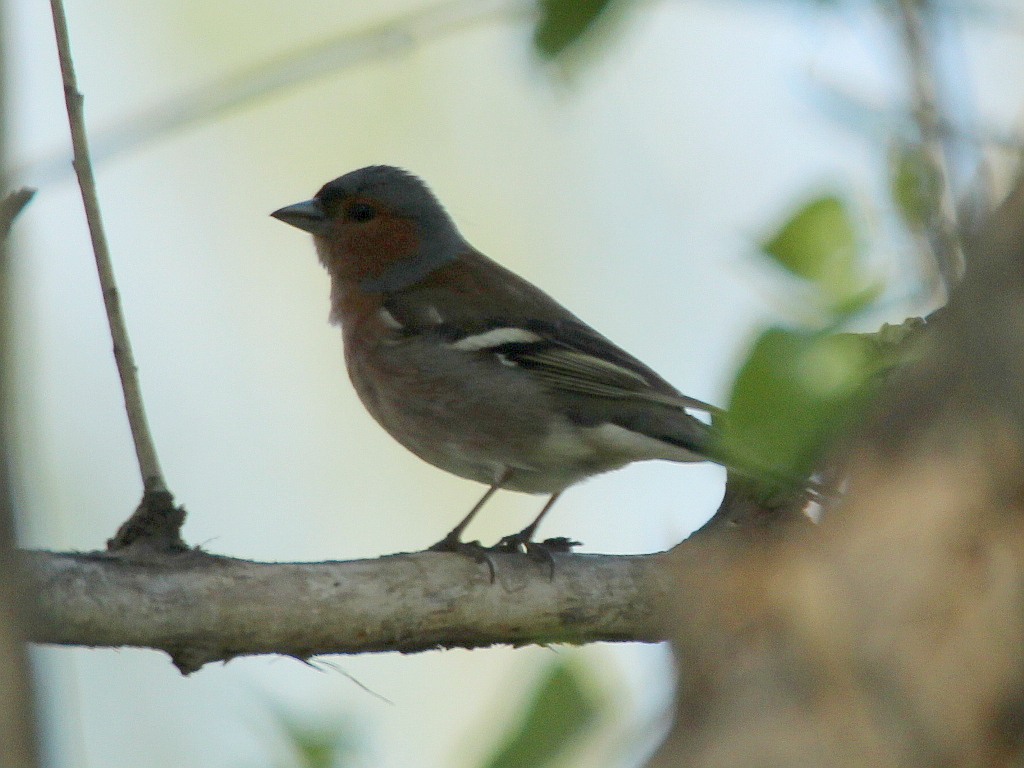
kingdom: Animalia
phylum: Chordata
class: Aves
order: Passeriformes
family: Fringillidae
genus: Fringilla
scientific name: Fringilla coelebs
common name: Common chaffinch
